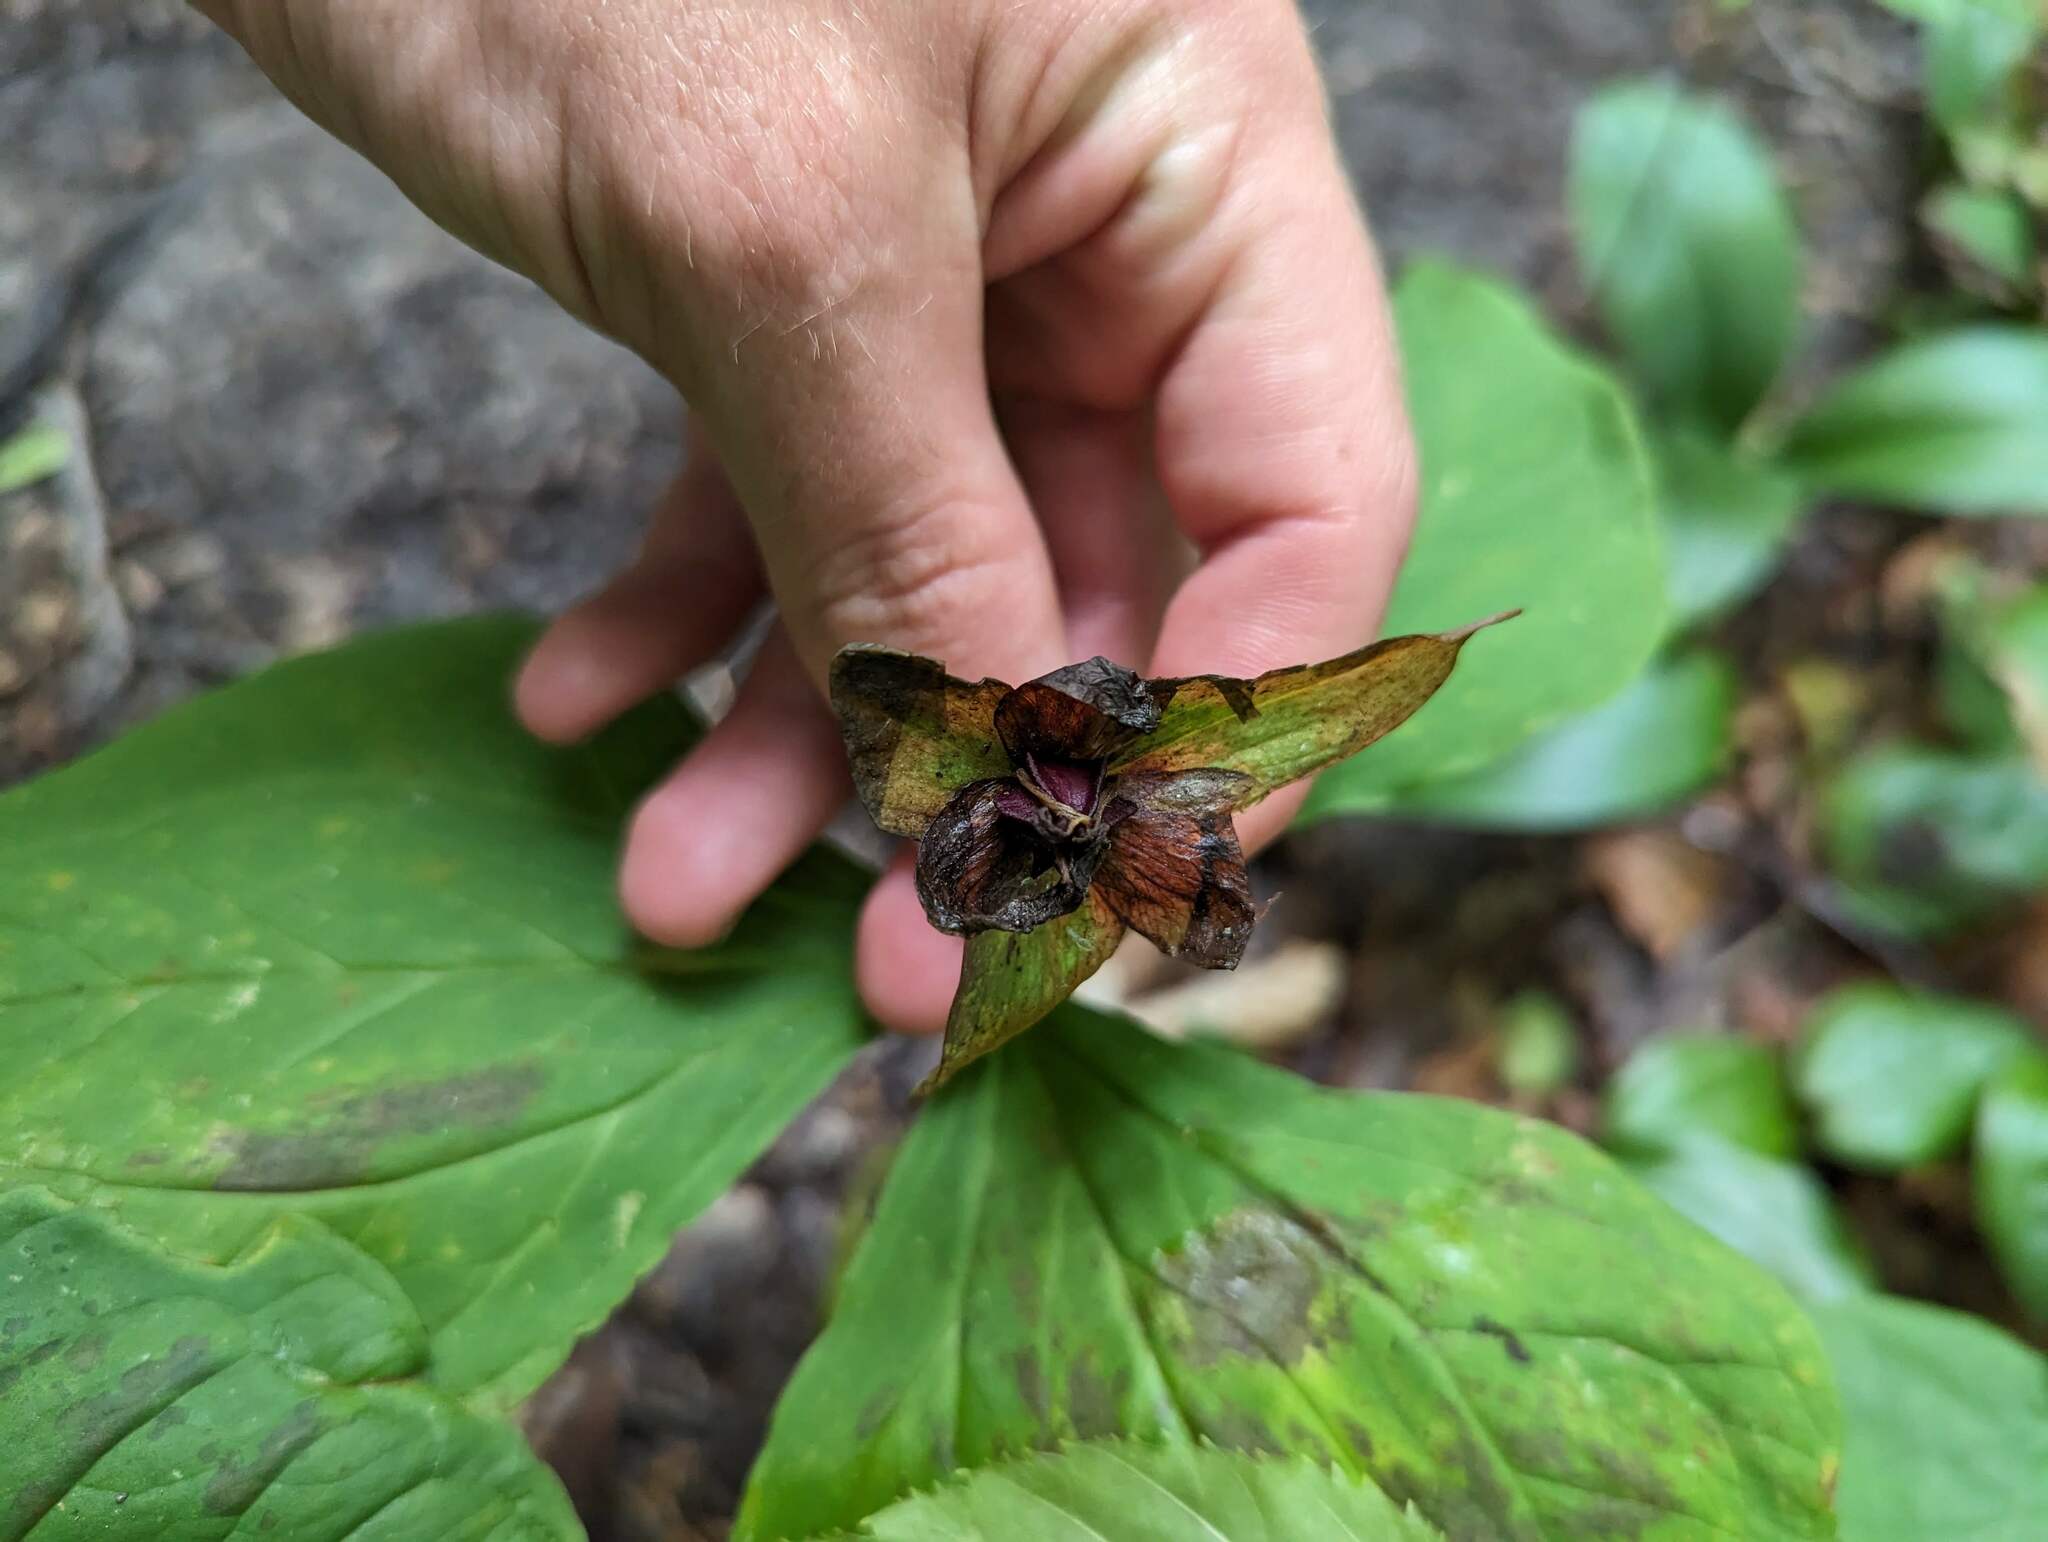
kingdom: Plantae
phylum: Tracheophyta
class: Liliopsida
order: Liliales
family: Melanthiaceae
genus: Trillium
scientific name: Trillium erectum
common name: Purple trillium
